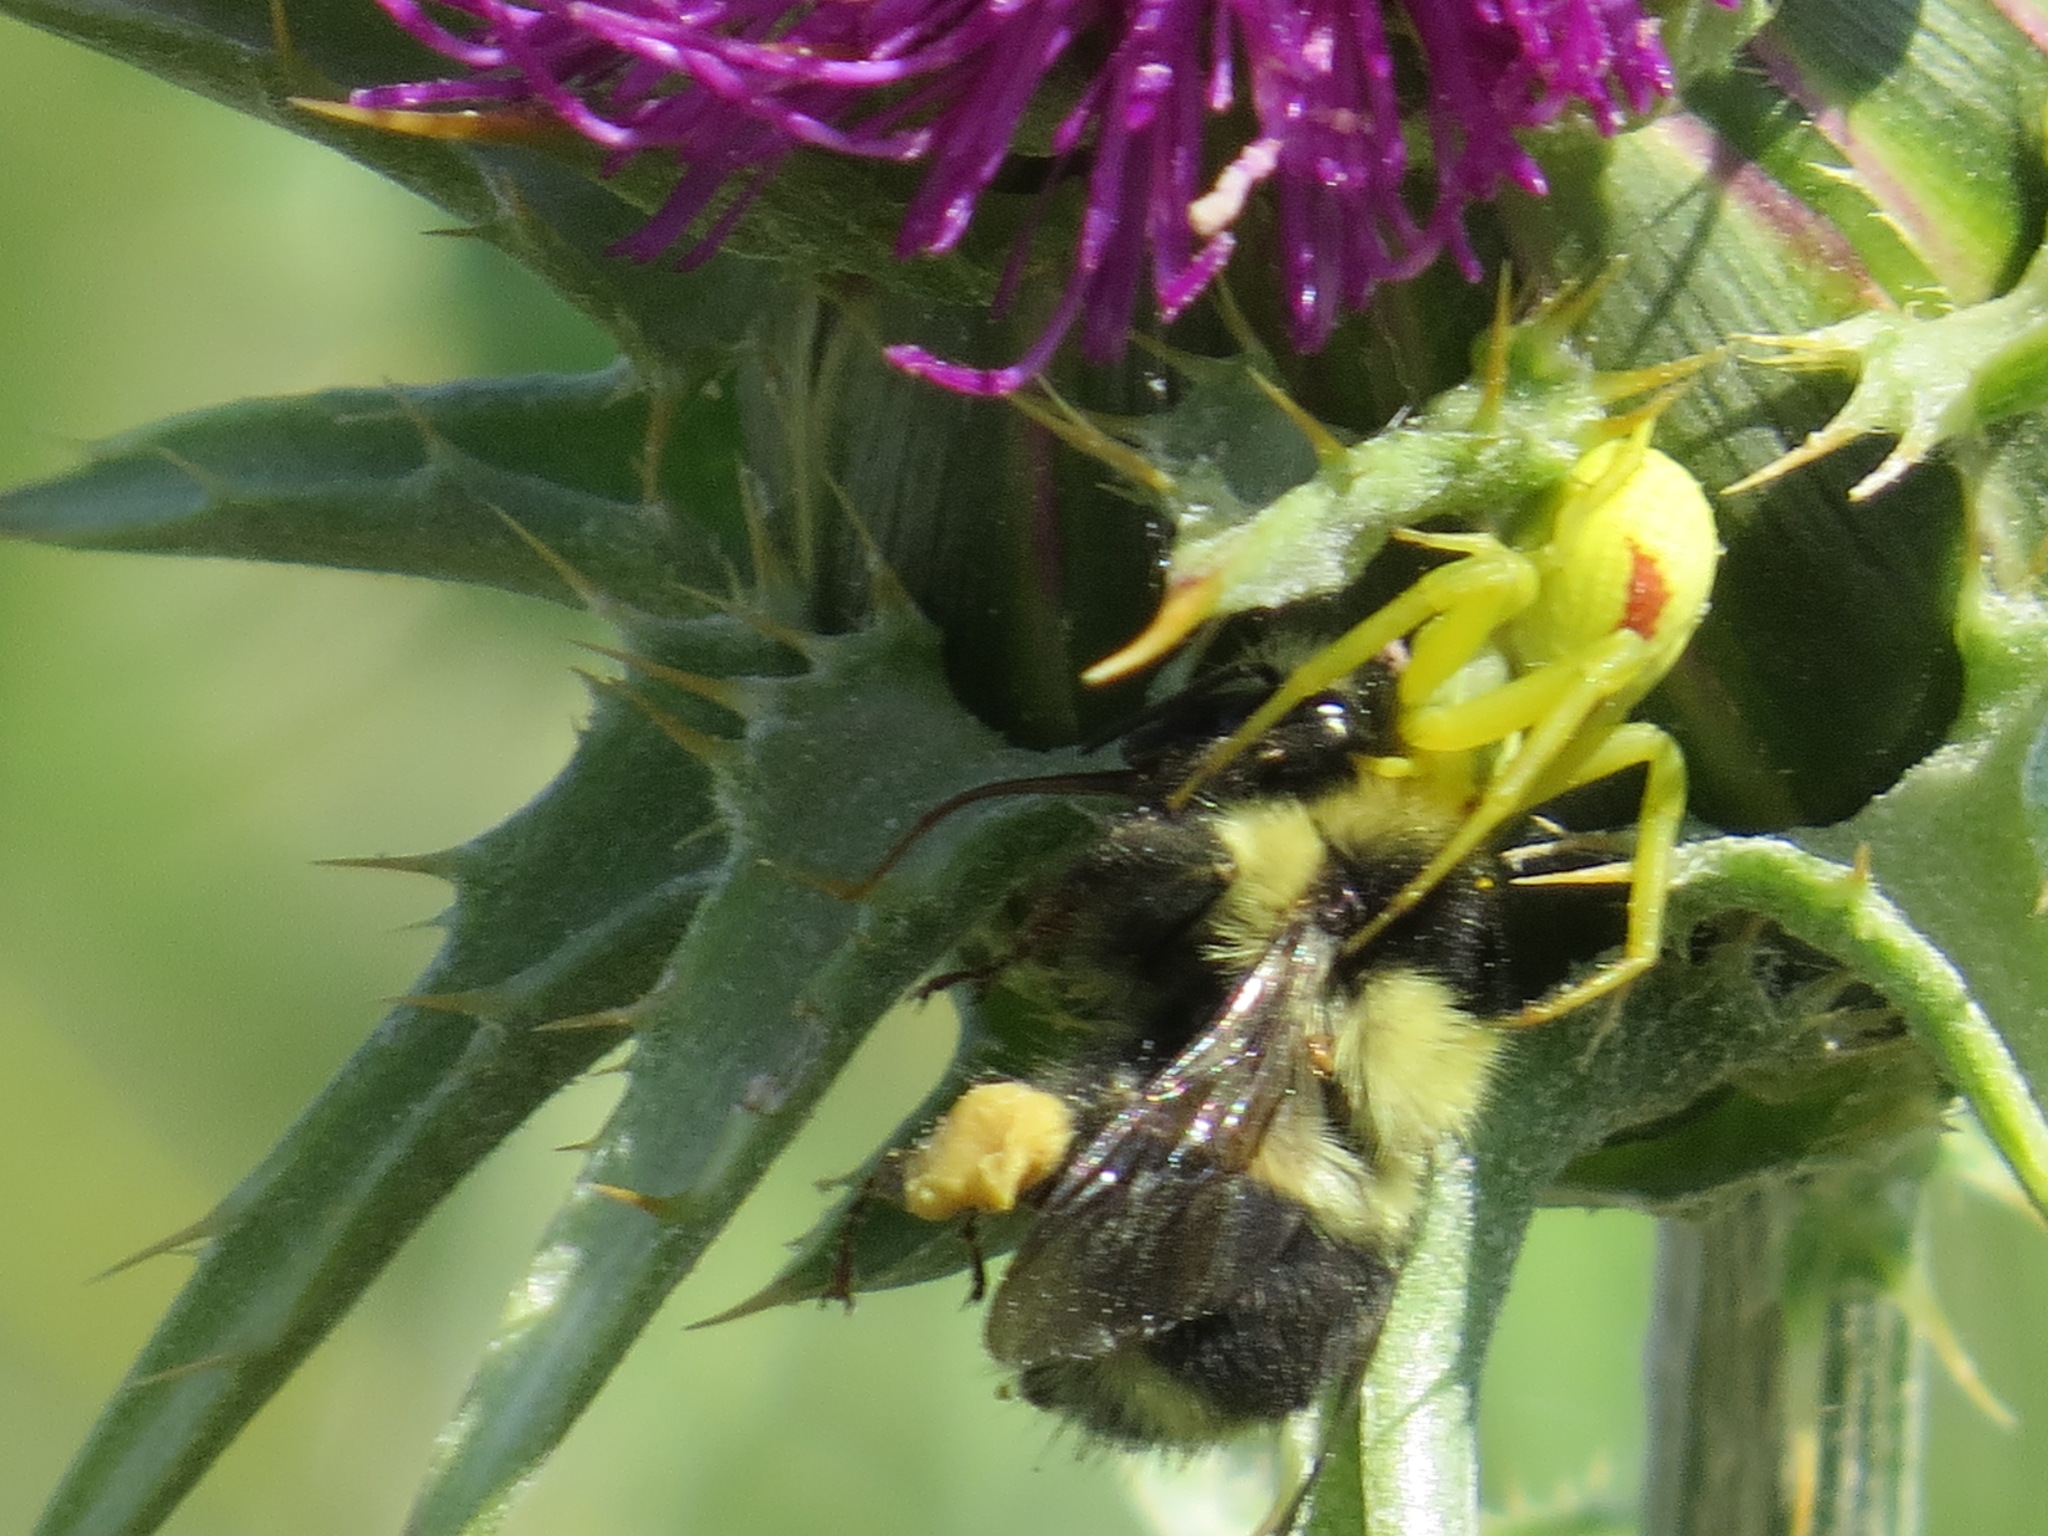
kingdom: Animalia
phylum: Arthropoda
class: Insecta
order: Hymenoptera
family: Apidae
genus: Bombus
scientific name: Bombus melanopygus
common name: Black tail bumble bee
